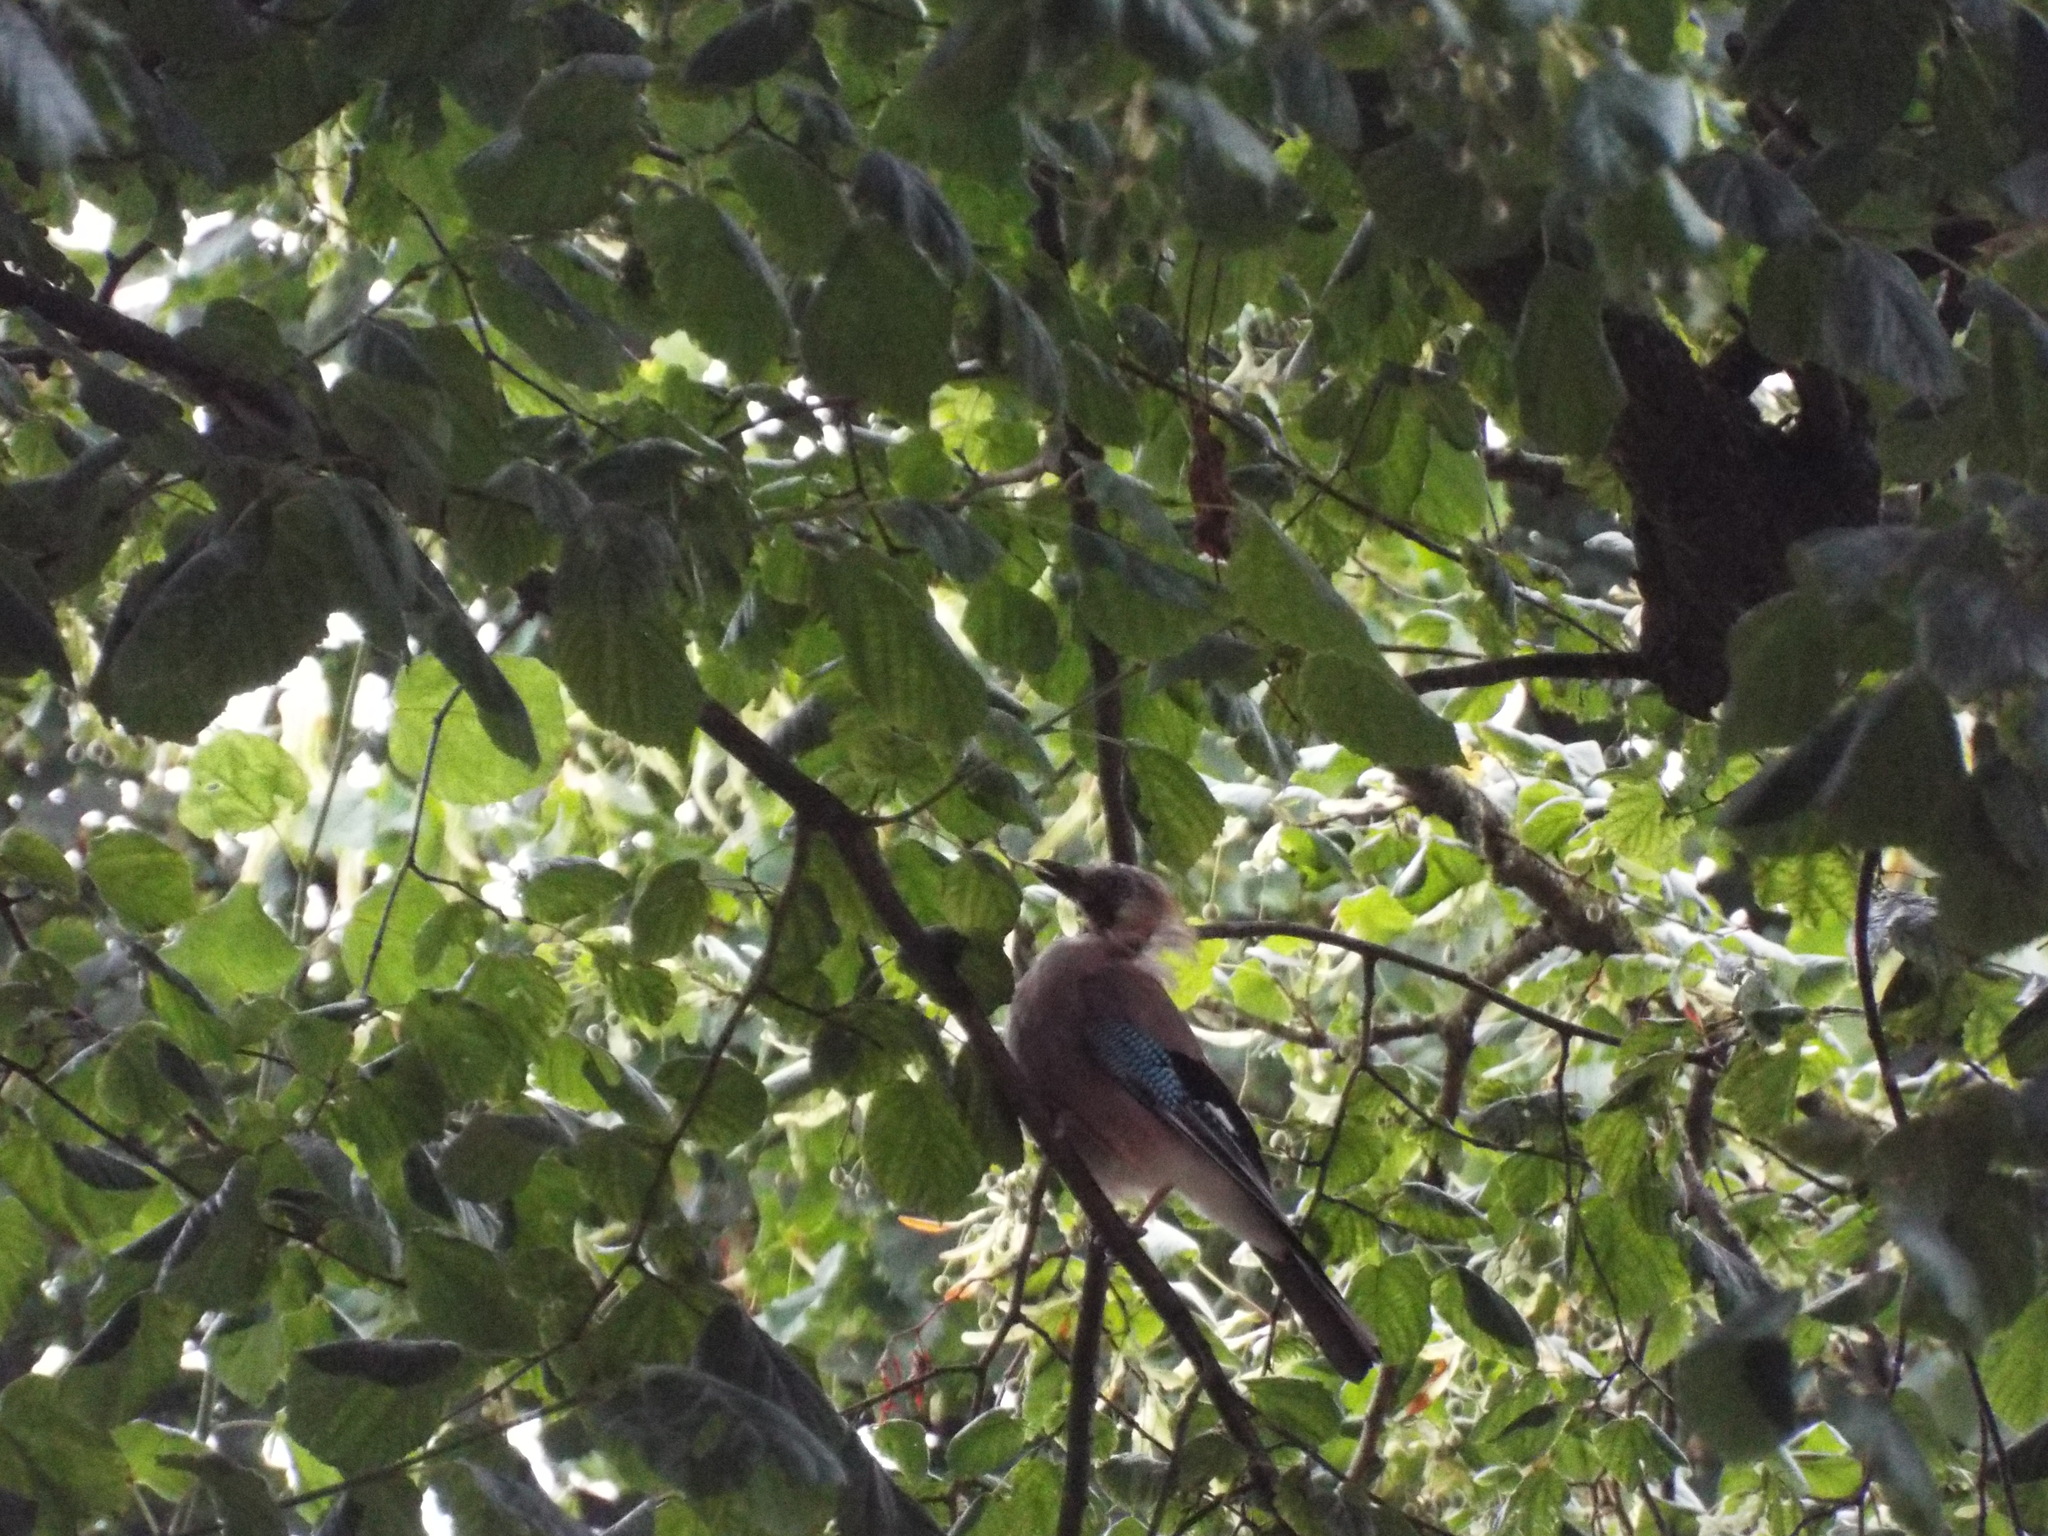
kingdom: Animalia
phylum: Chordata
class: Aves
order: Passeriformes
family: Corvidae
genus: Garrulus
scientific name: Garrulus glandarius
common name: Eurasian jay
